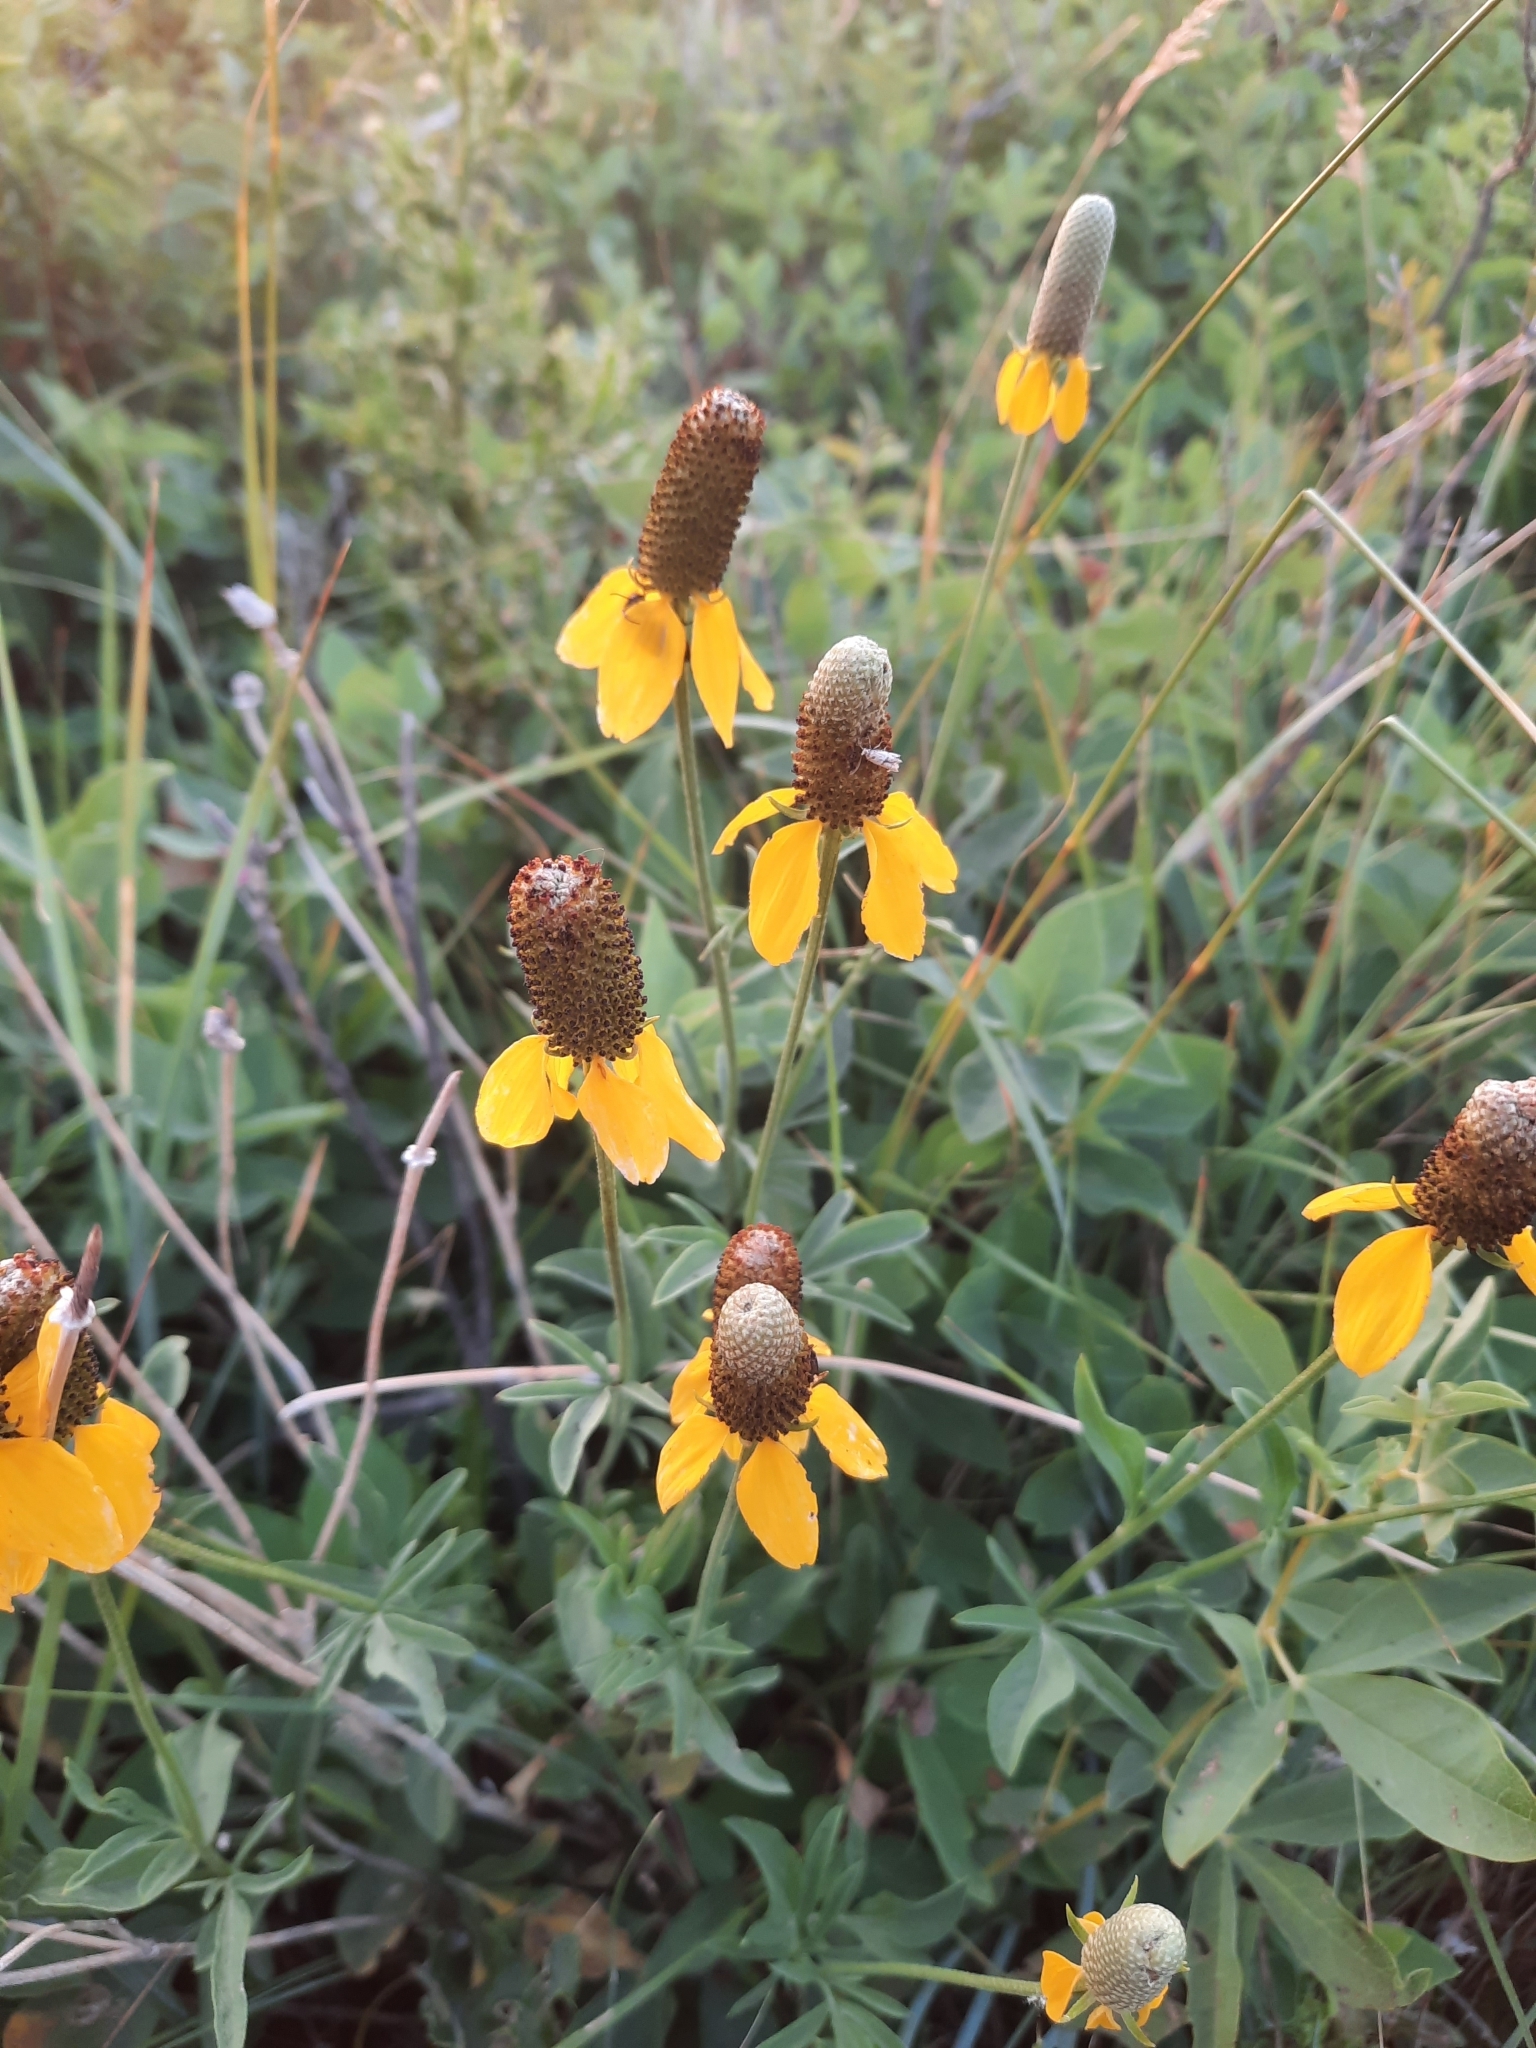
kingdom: Plantae
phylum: Tracheophyta
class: Magnoliopsida
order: Asterales
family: Asteraceae
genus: Ratibida
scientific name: Ratibida columnifera
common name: Prairie coneflower
